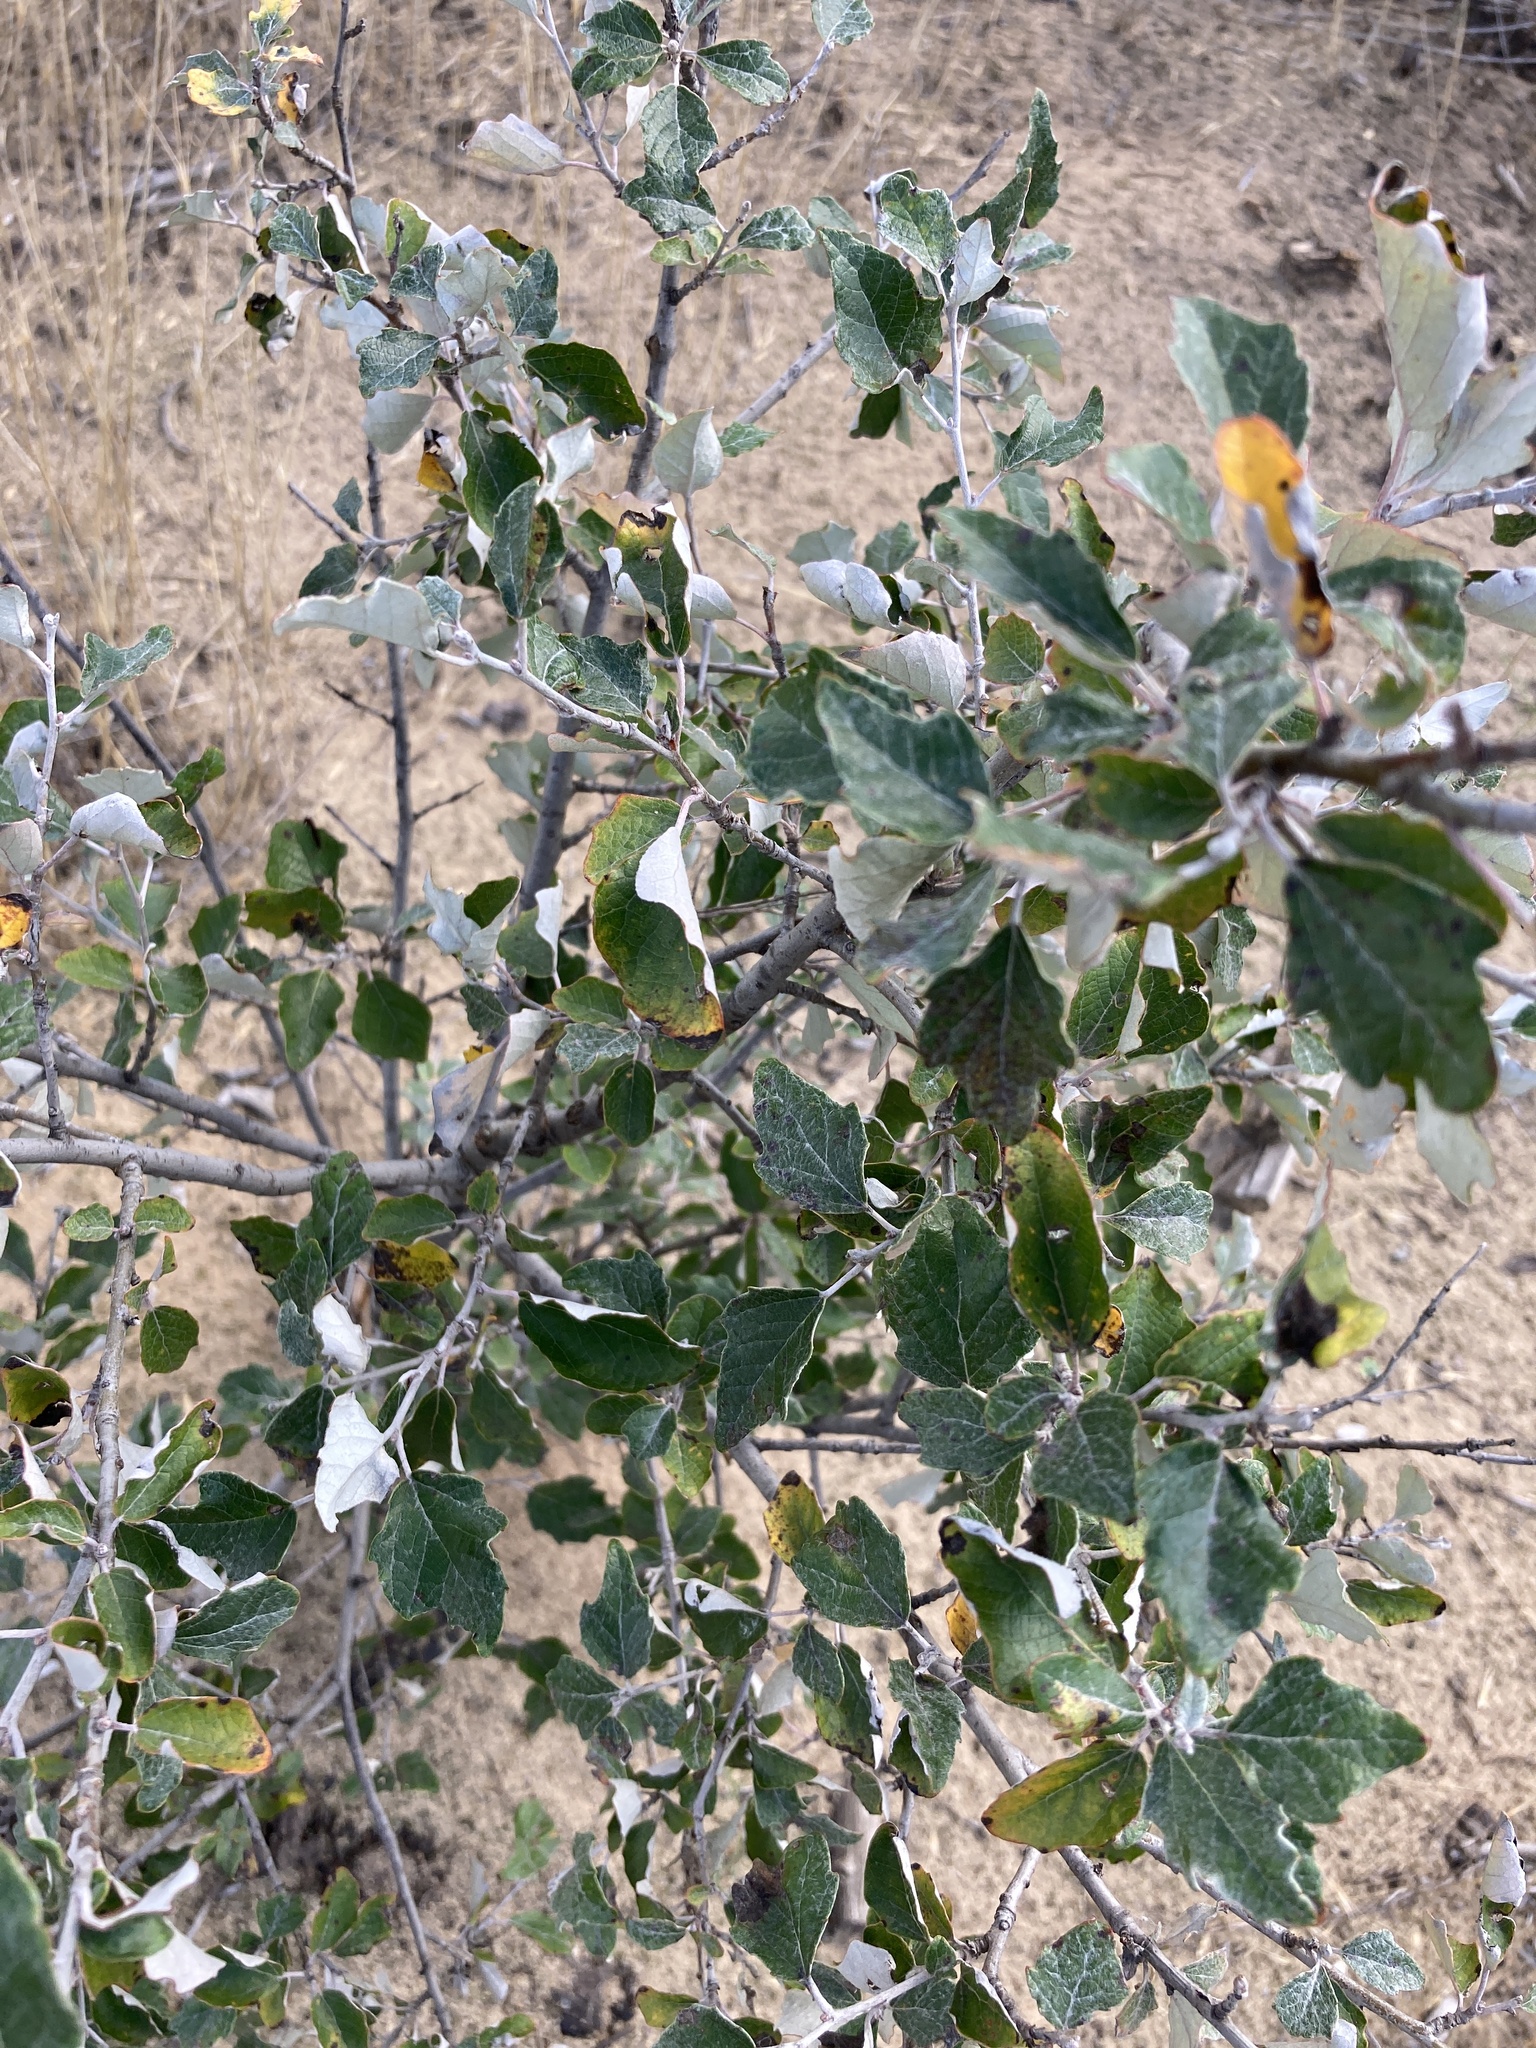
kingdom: Plantae
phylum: Tracheophyta
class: Magnoliopsida
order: Malpighiales
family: Salicaceae
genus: Populus
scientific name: Populus alba
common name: White poplar
